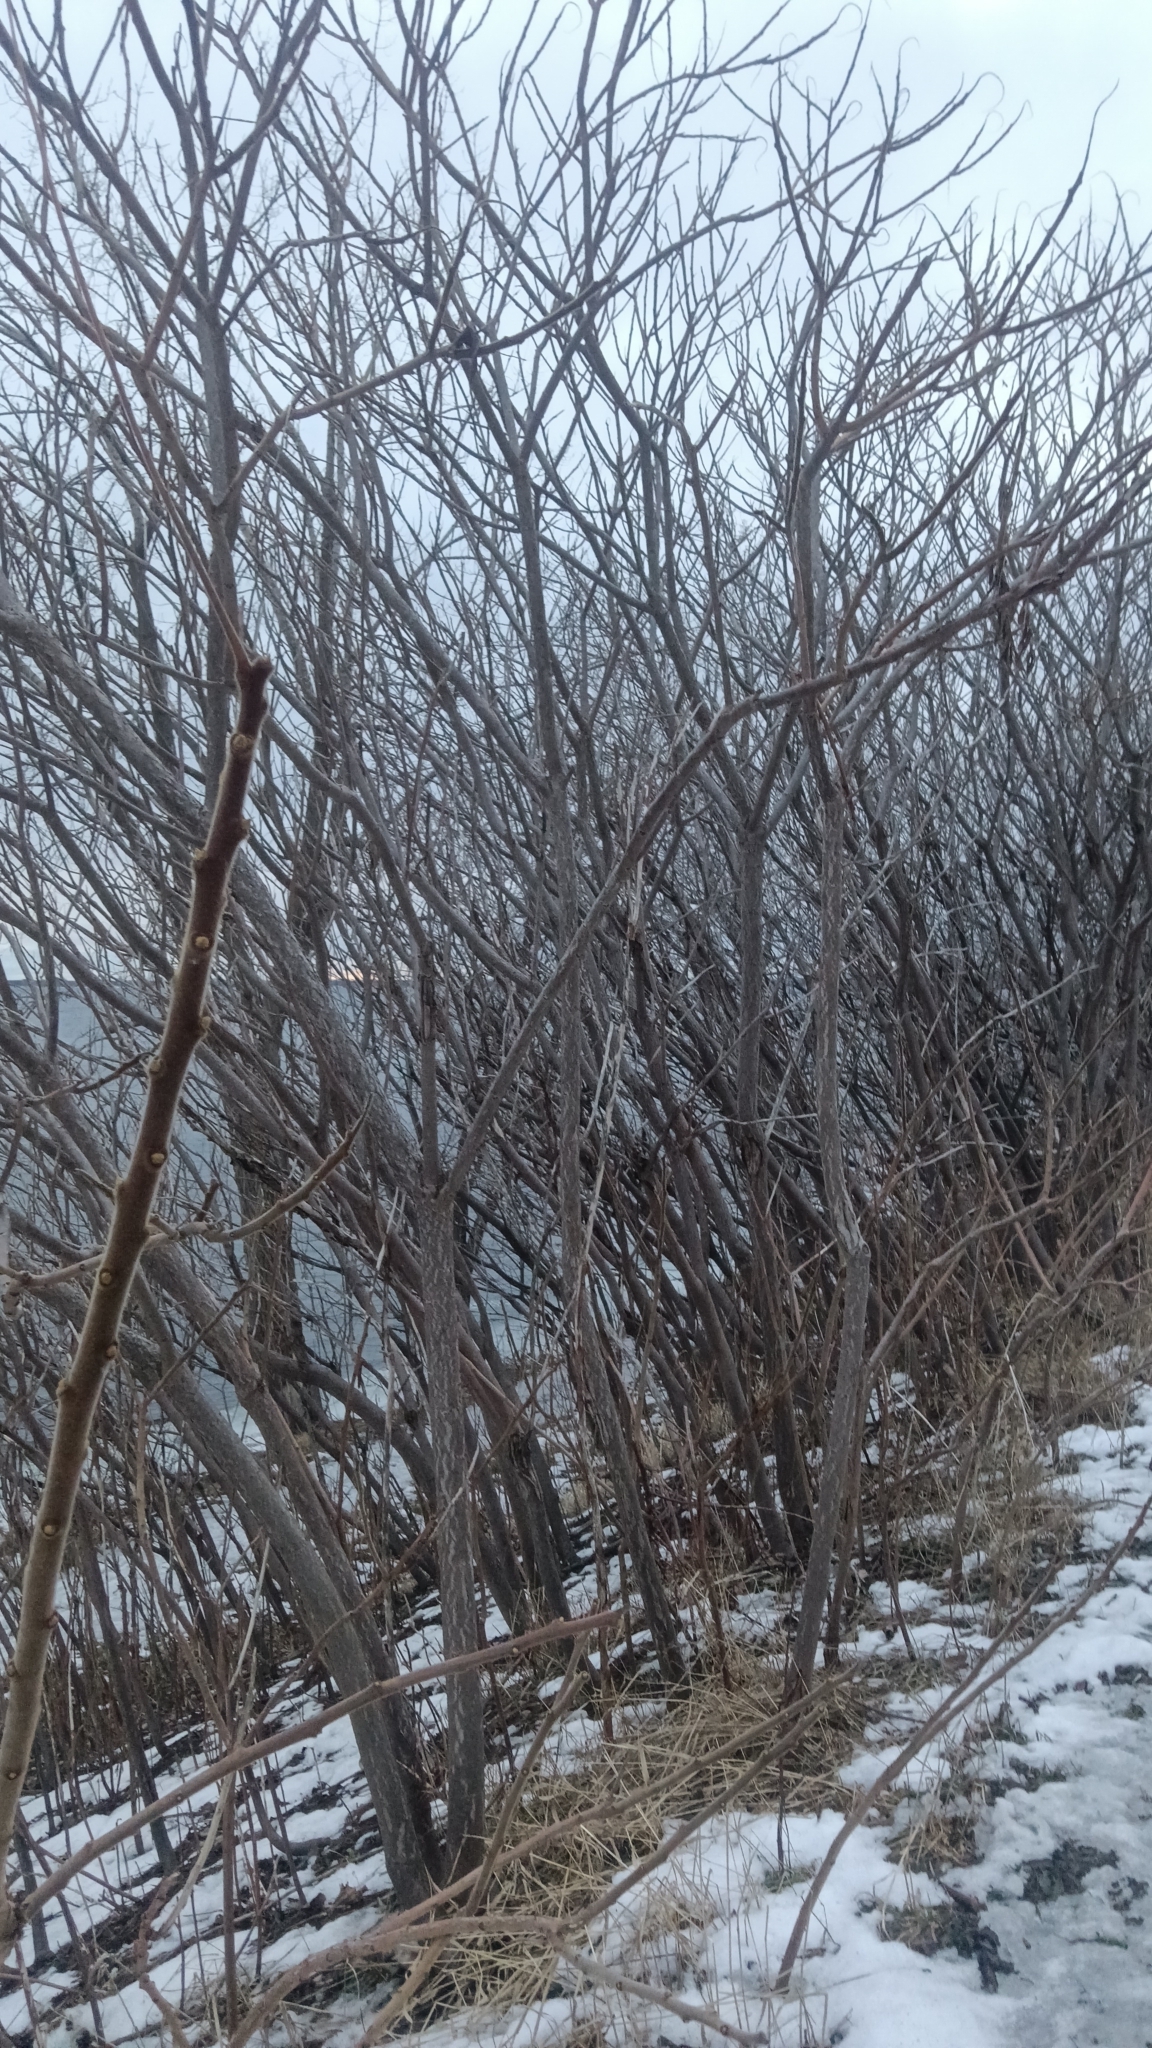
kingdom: Plantae
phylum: Tracheophyta
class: Magnoliopsida
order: Sapindales
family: Anacardiaceae
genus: Rhus
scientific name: Rhus typhina
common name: Staghorn sumac
